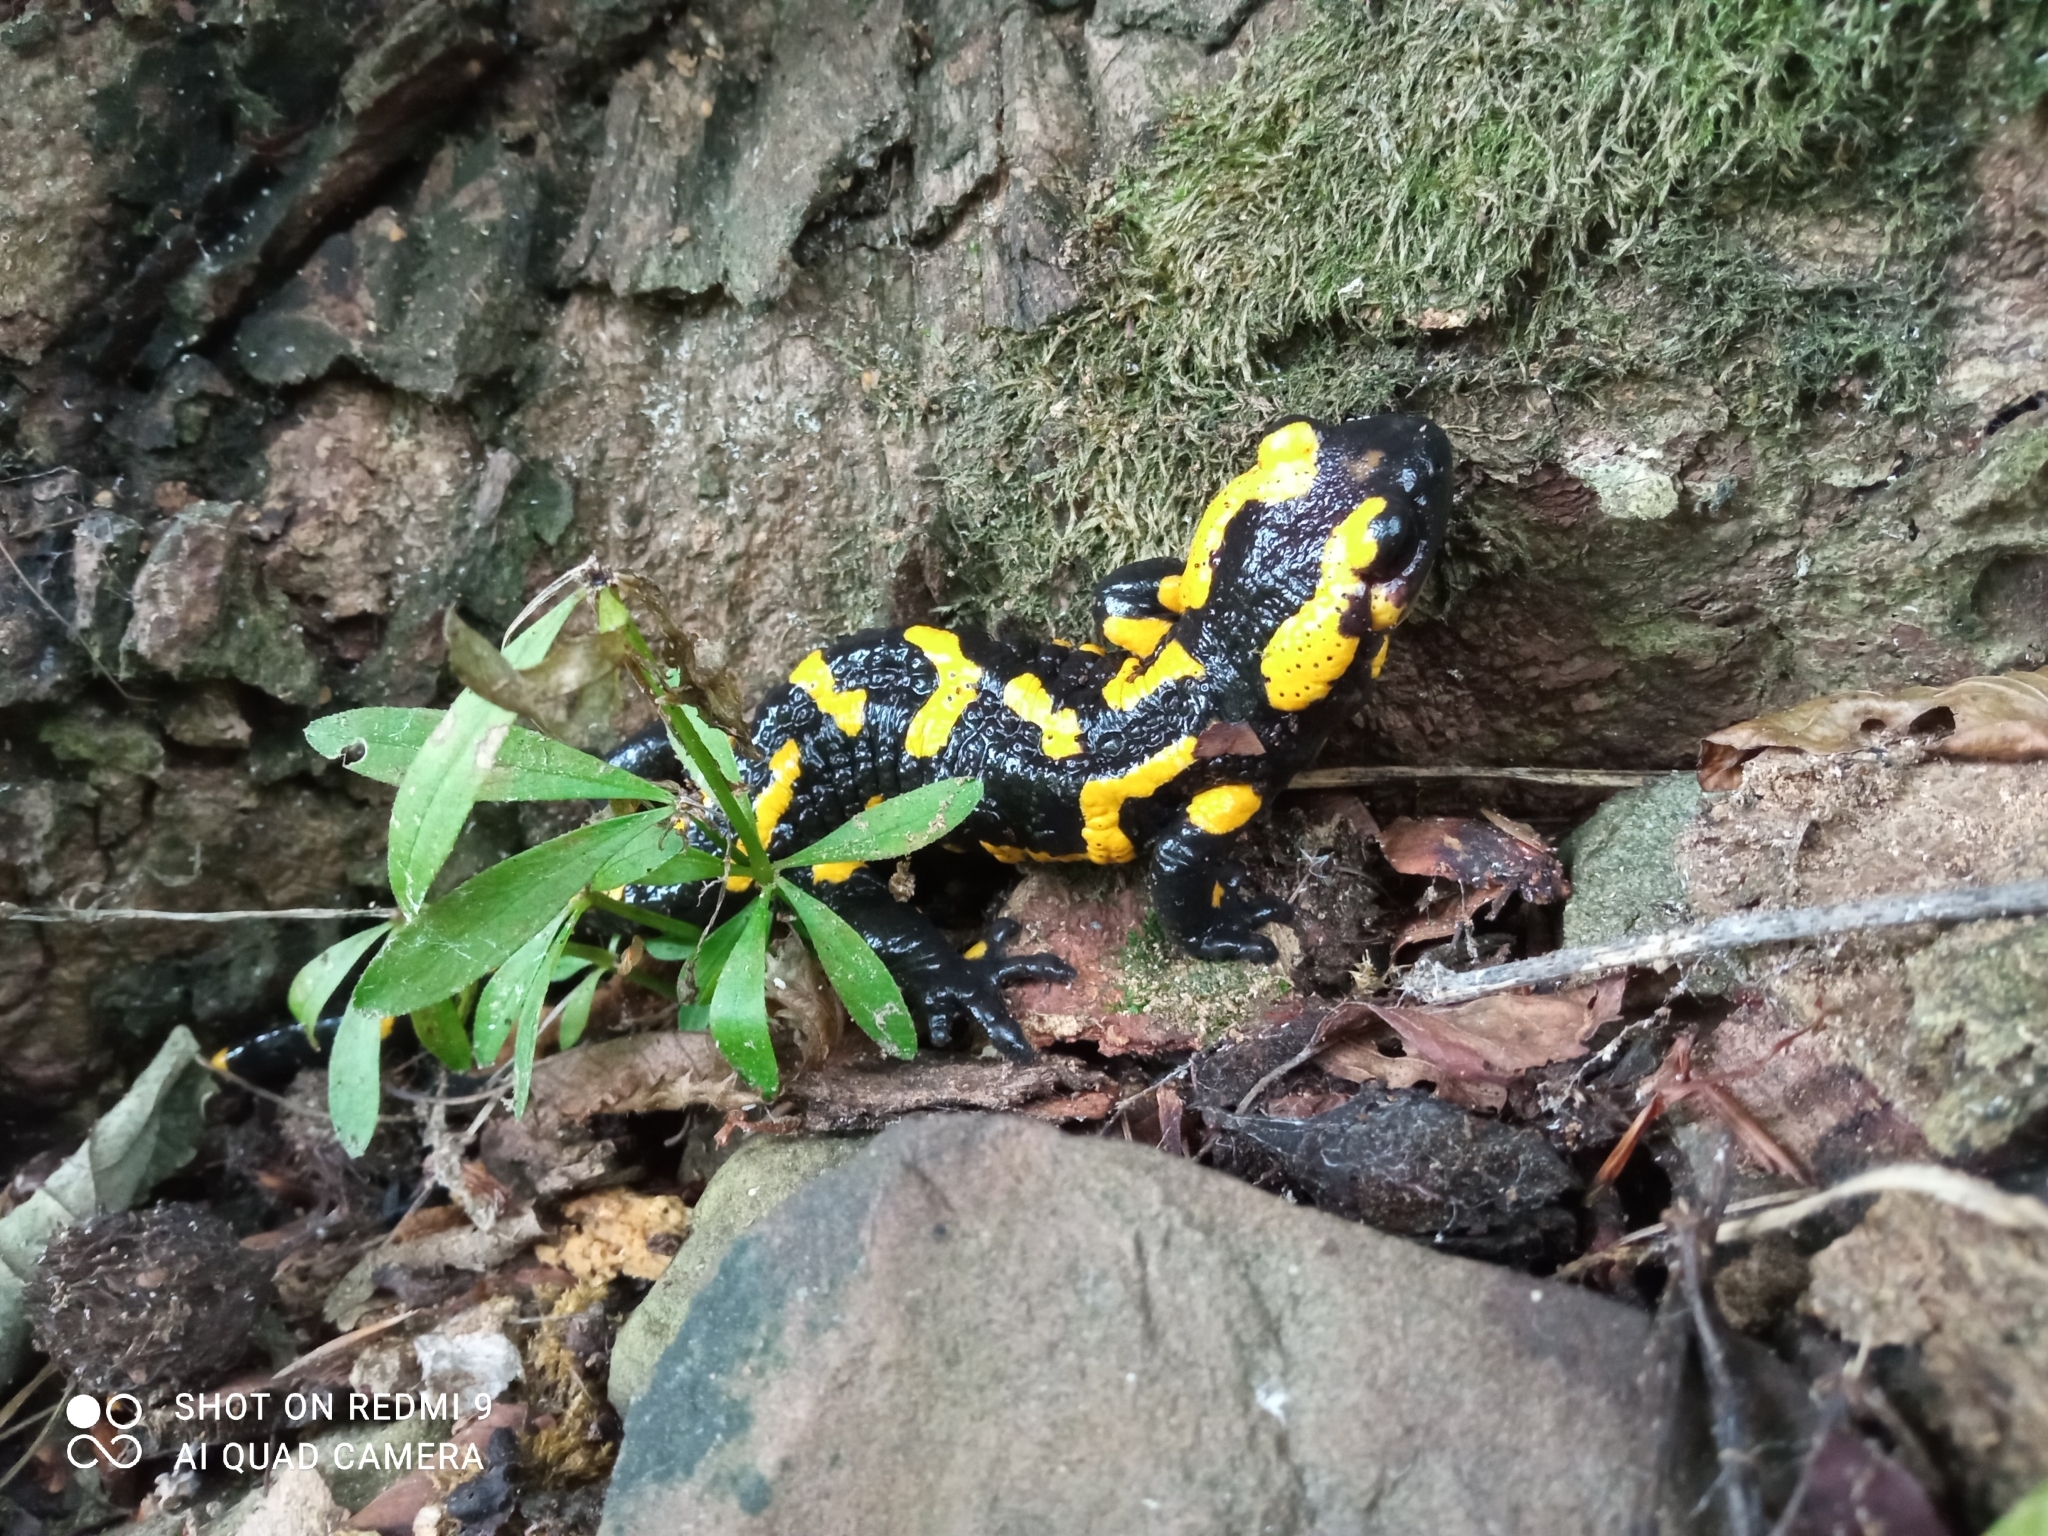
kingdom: Animalia
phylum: Chordata
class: Amphibia
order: Caudata
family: Salamandridae
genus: Salamandra
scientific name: Salamandra salamandra
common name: Fire salamander
